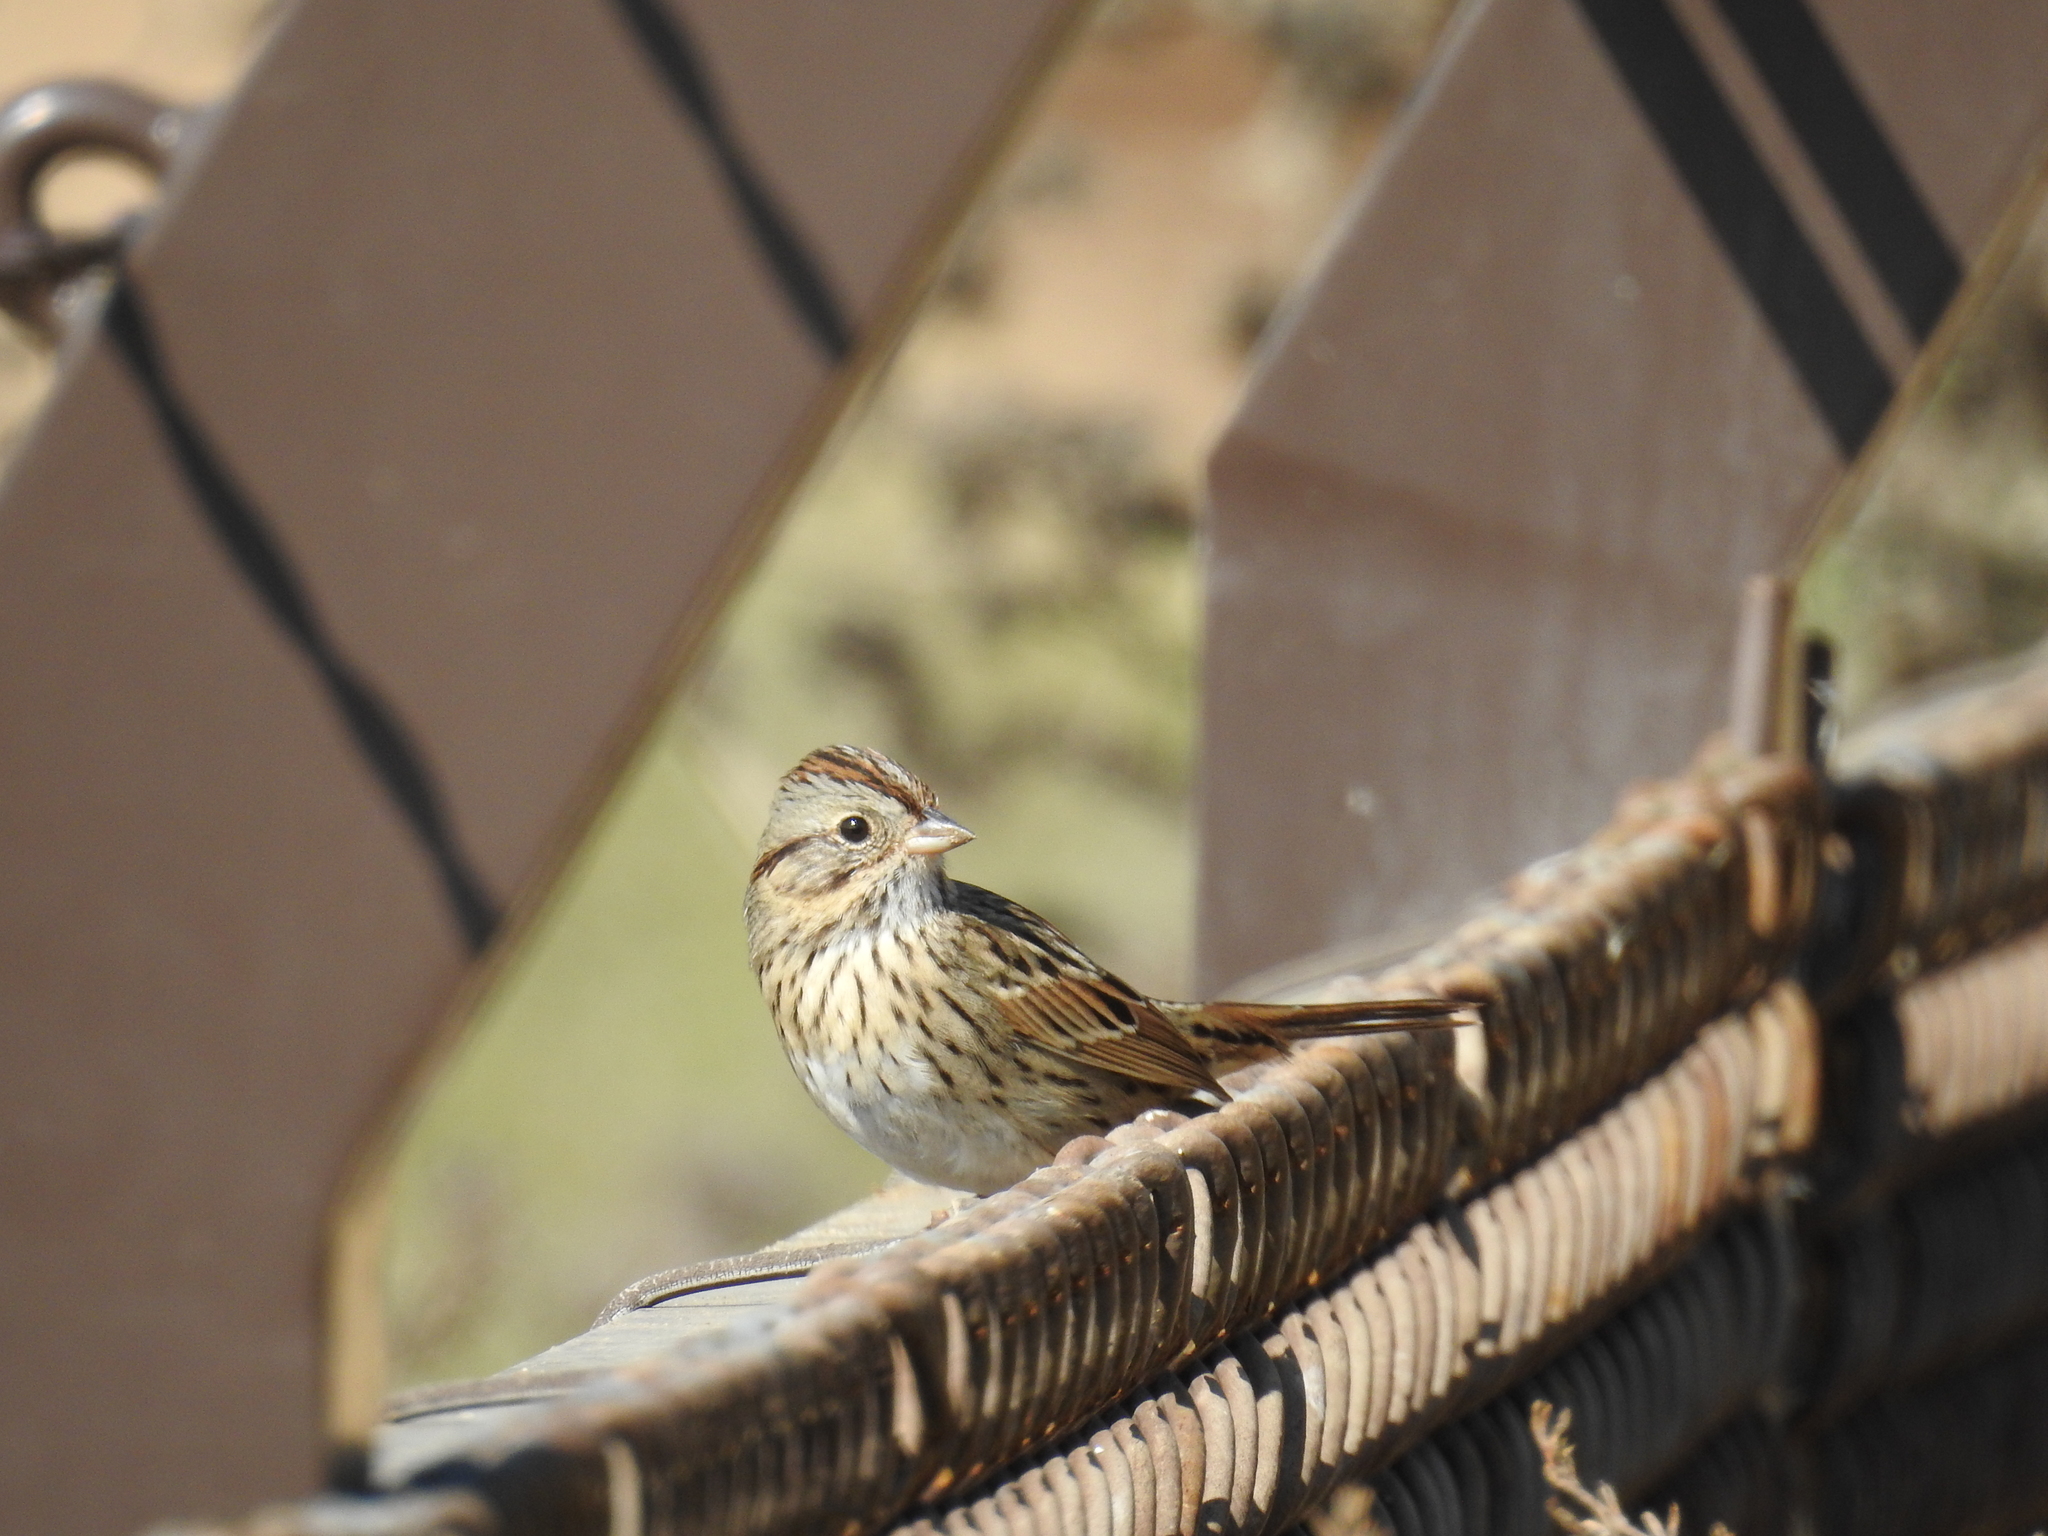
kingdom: Animalia
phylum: Chordata
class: Aves
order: Passeriformes
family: Passerellidae
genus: Melospiza
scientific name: Melospiza lincolnii
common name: Lincoln's sparrow
